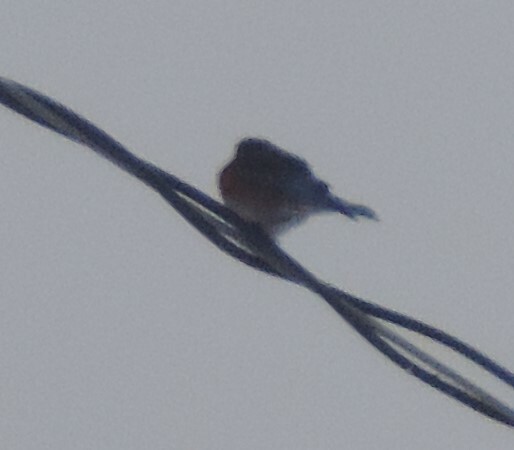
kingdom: Animalia
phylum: Chordata
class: Aves
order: Passeriformes
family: Turdidae
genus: Sialia
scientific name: Sialia mexicana
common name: Western bluebird
